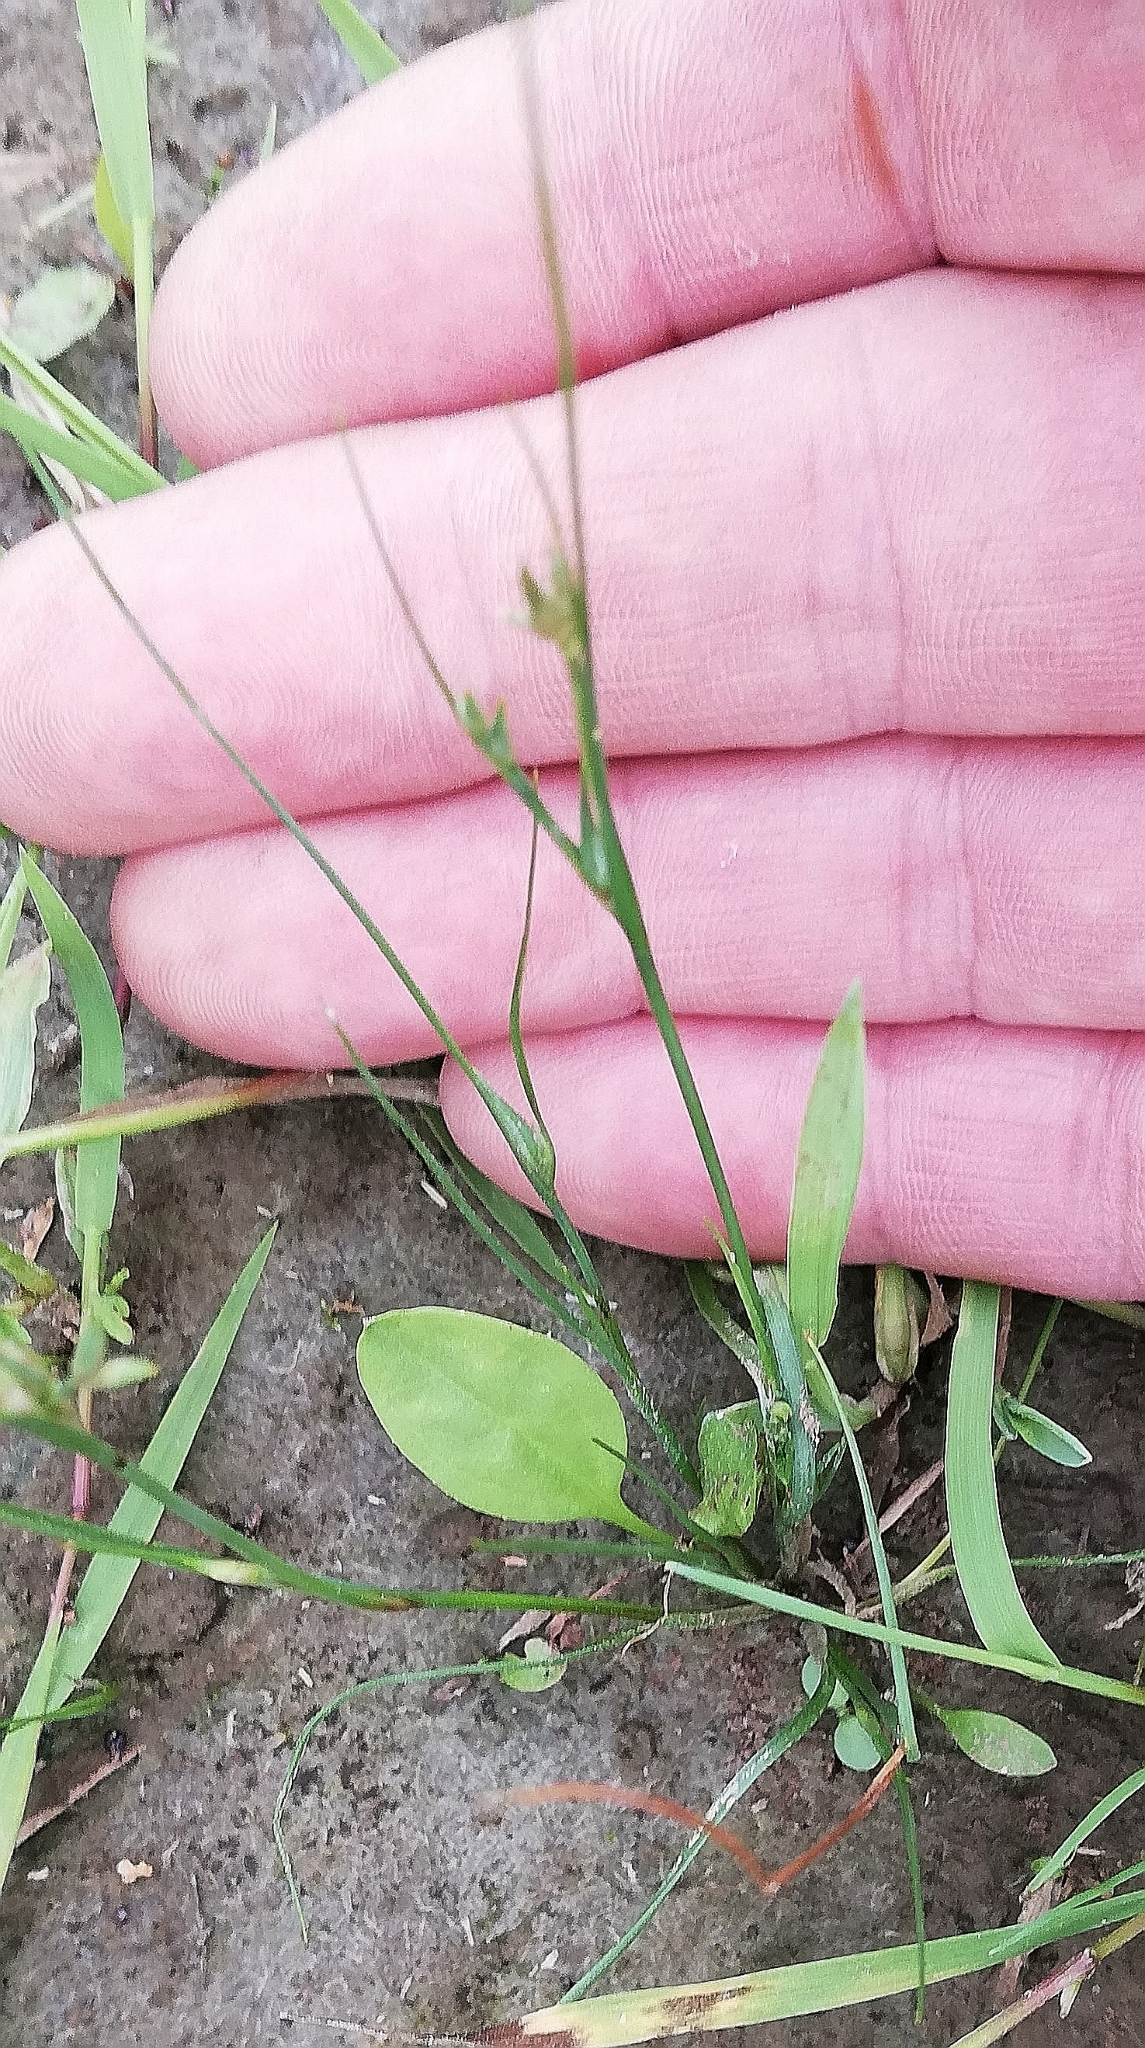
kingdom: Plantae
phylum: Tracheophyta
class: Liliopsida
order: Poales
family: Juncaceae
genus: Juncus
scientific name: Juncus bufonius
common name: Toad rush
